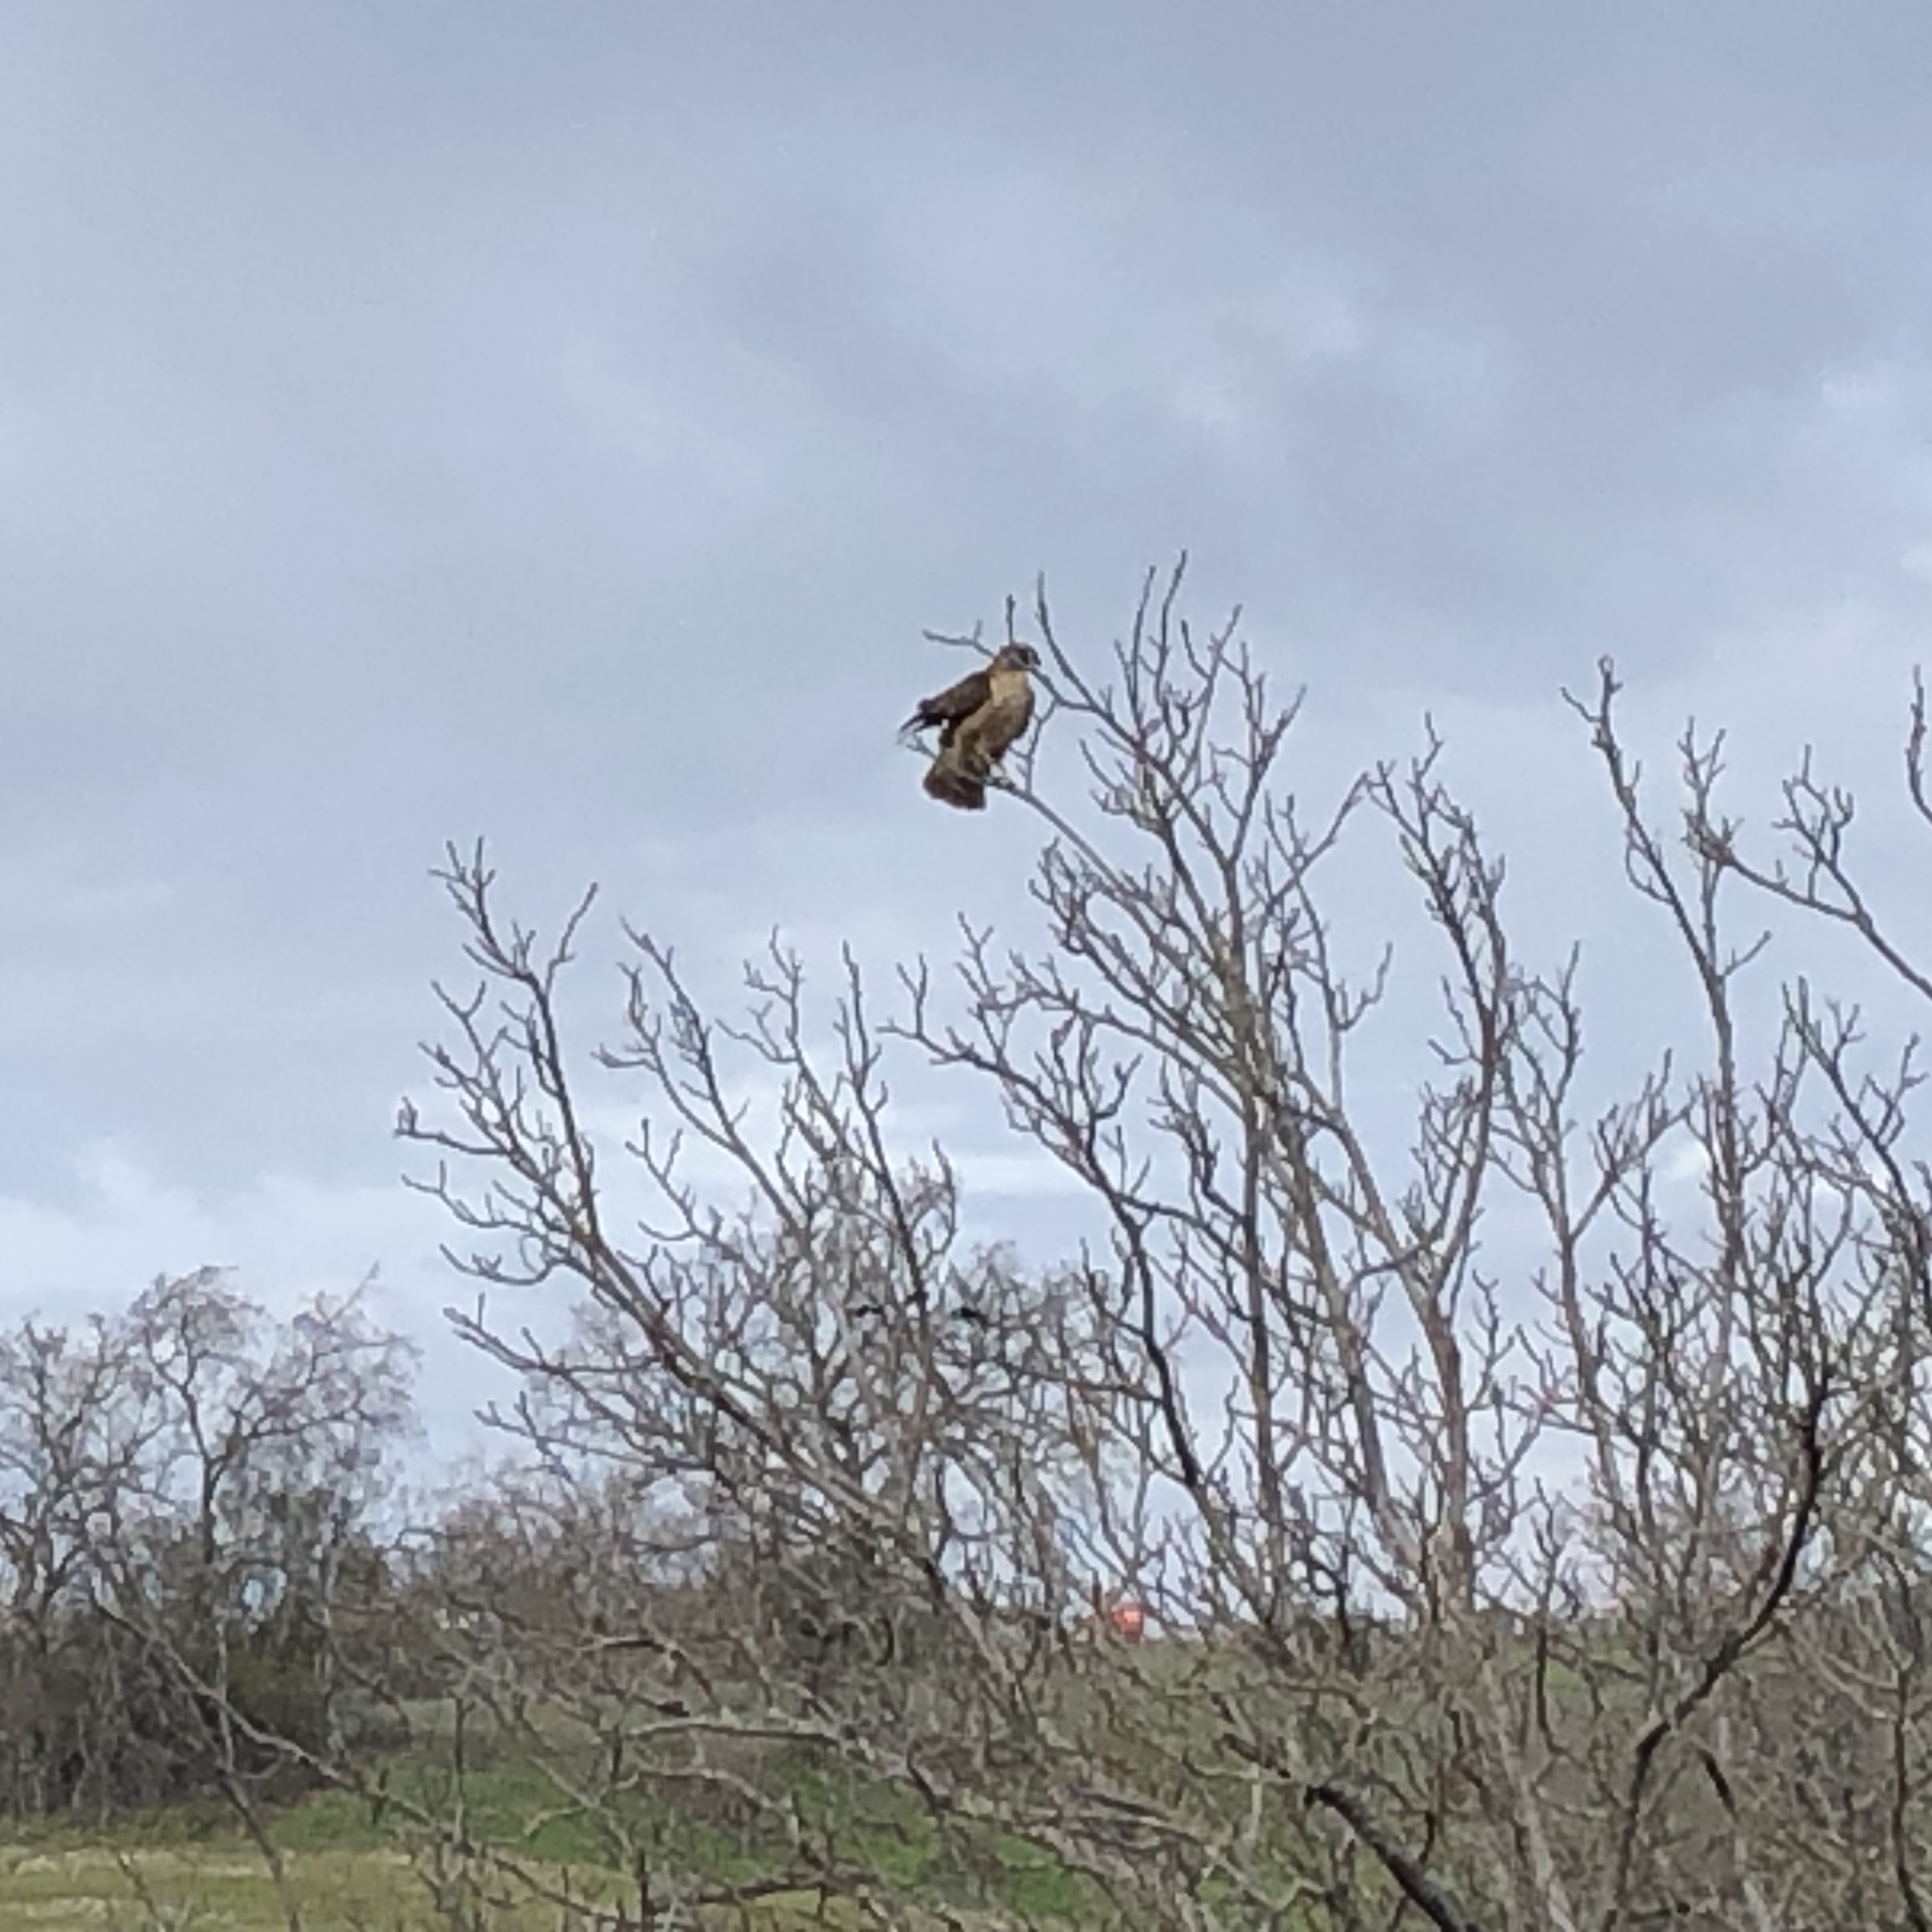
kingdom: Animalia
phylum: Chordata
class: Aves
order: Accipitriformes
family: Accipitridae
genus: Buteo
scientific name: Buteo jamaicensis
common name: Red-tailed hawk
